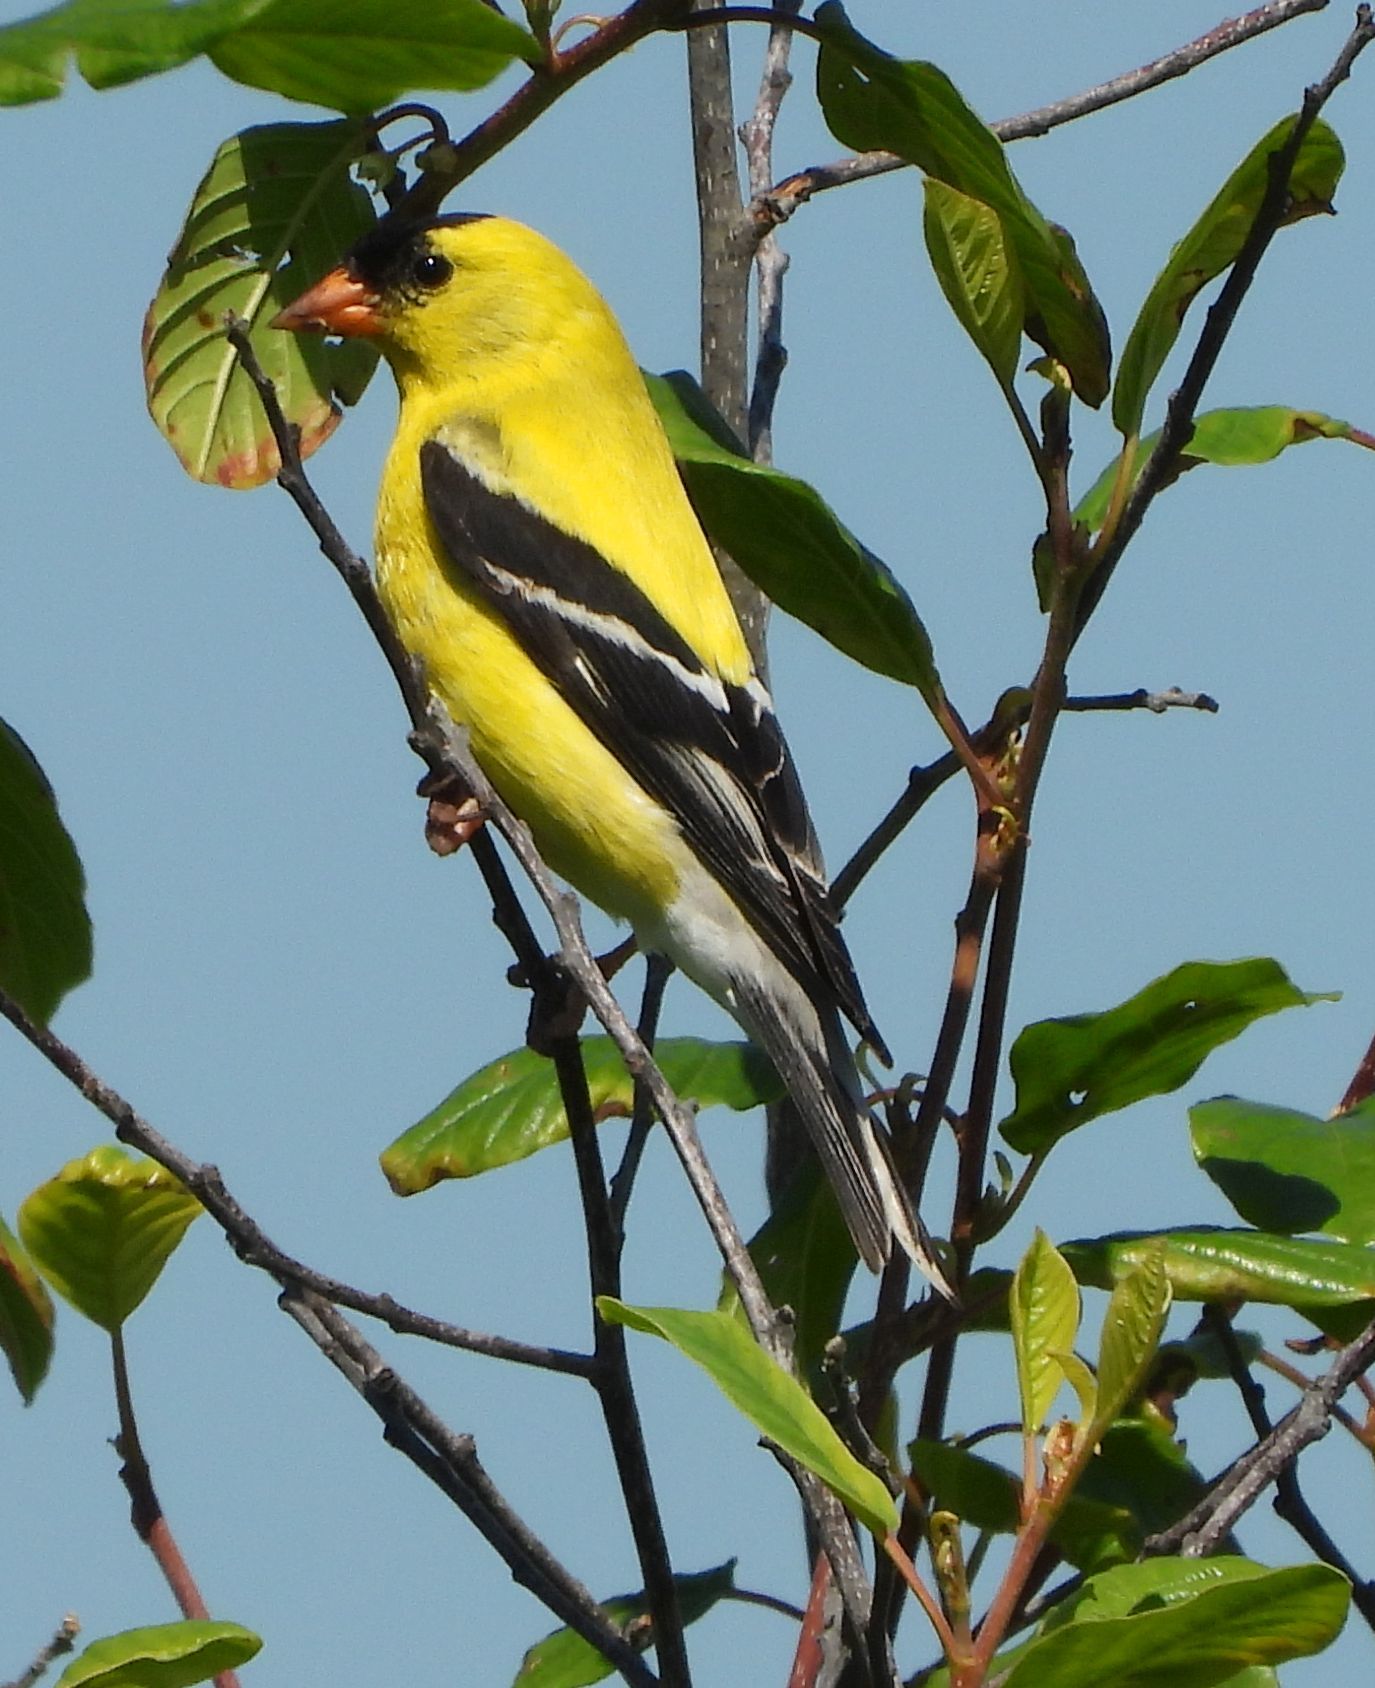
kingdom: Animalia
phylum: Chordata
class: Aves
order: Passeriformes
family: Fringillidae
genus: Spinus
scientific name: Spinus tristis
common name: American goldfinch
